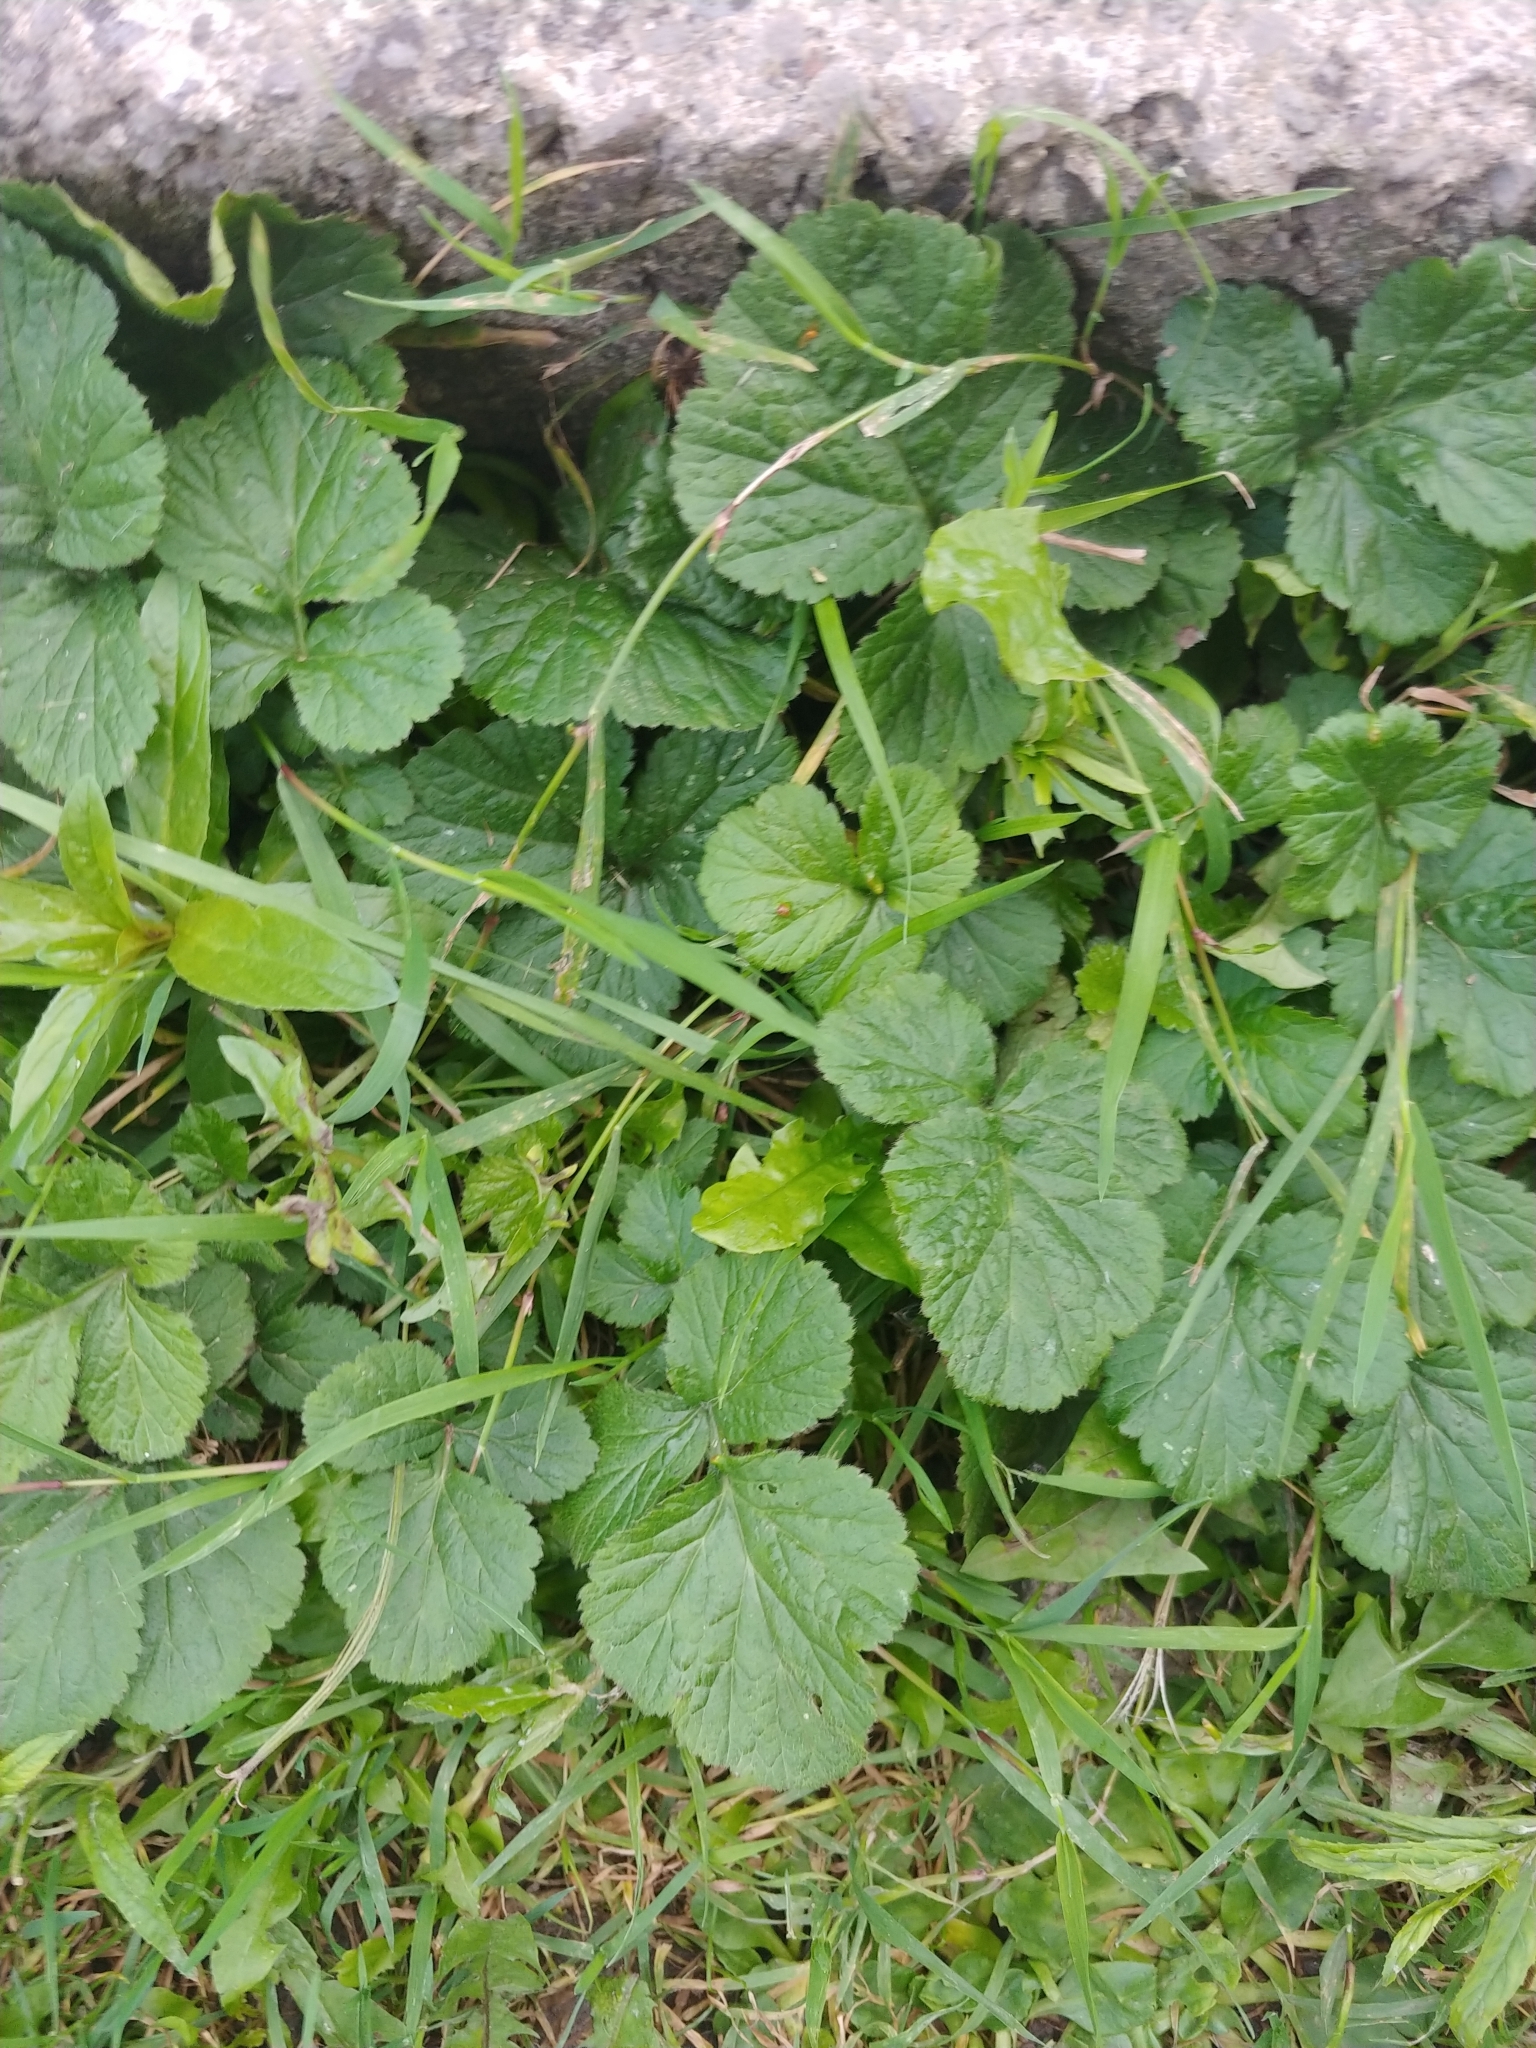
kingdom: Plantae
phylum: Tracheophyta
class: Magnoliopsida
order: Rosales
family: Rosaceae
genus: Geum
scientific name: Geum urbanum
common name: Wood avens
